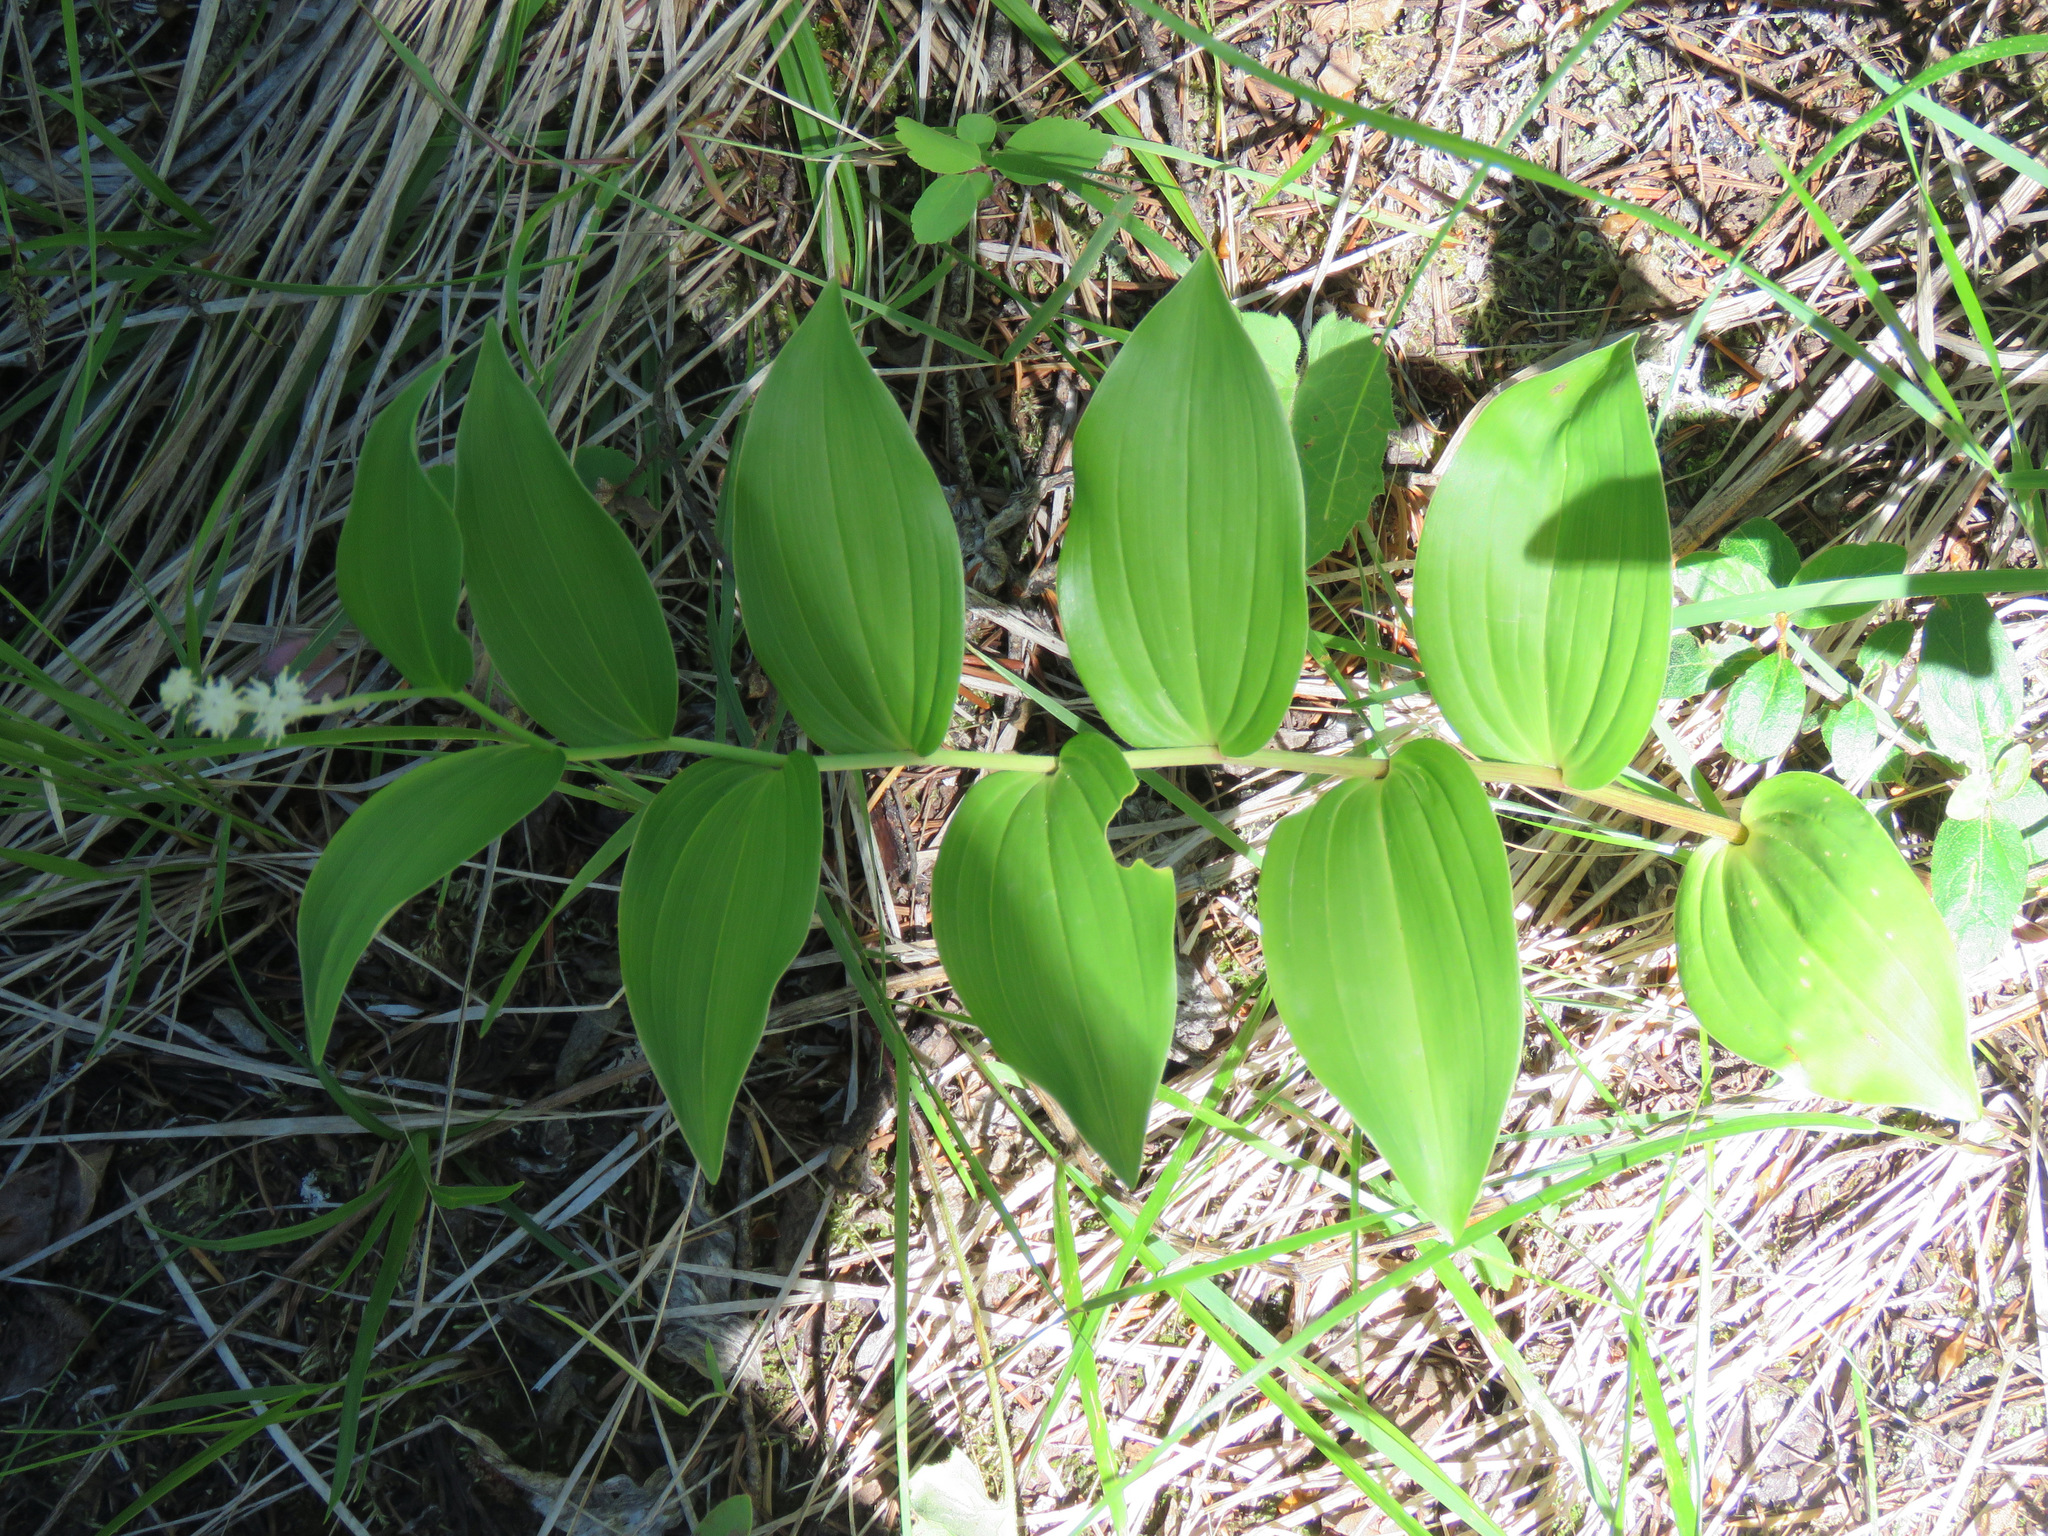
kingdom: Plantae
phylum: Tracheophyta
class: Liliopsida
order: Asparagales
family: Asparagaceae
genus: Maianthemum
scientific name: Maianthemum racemosum
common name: False spikenard
